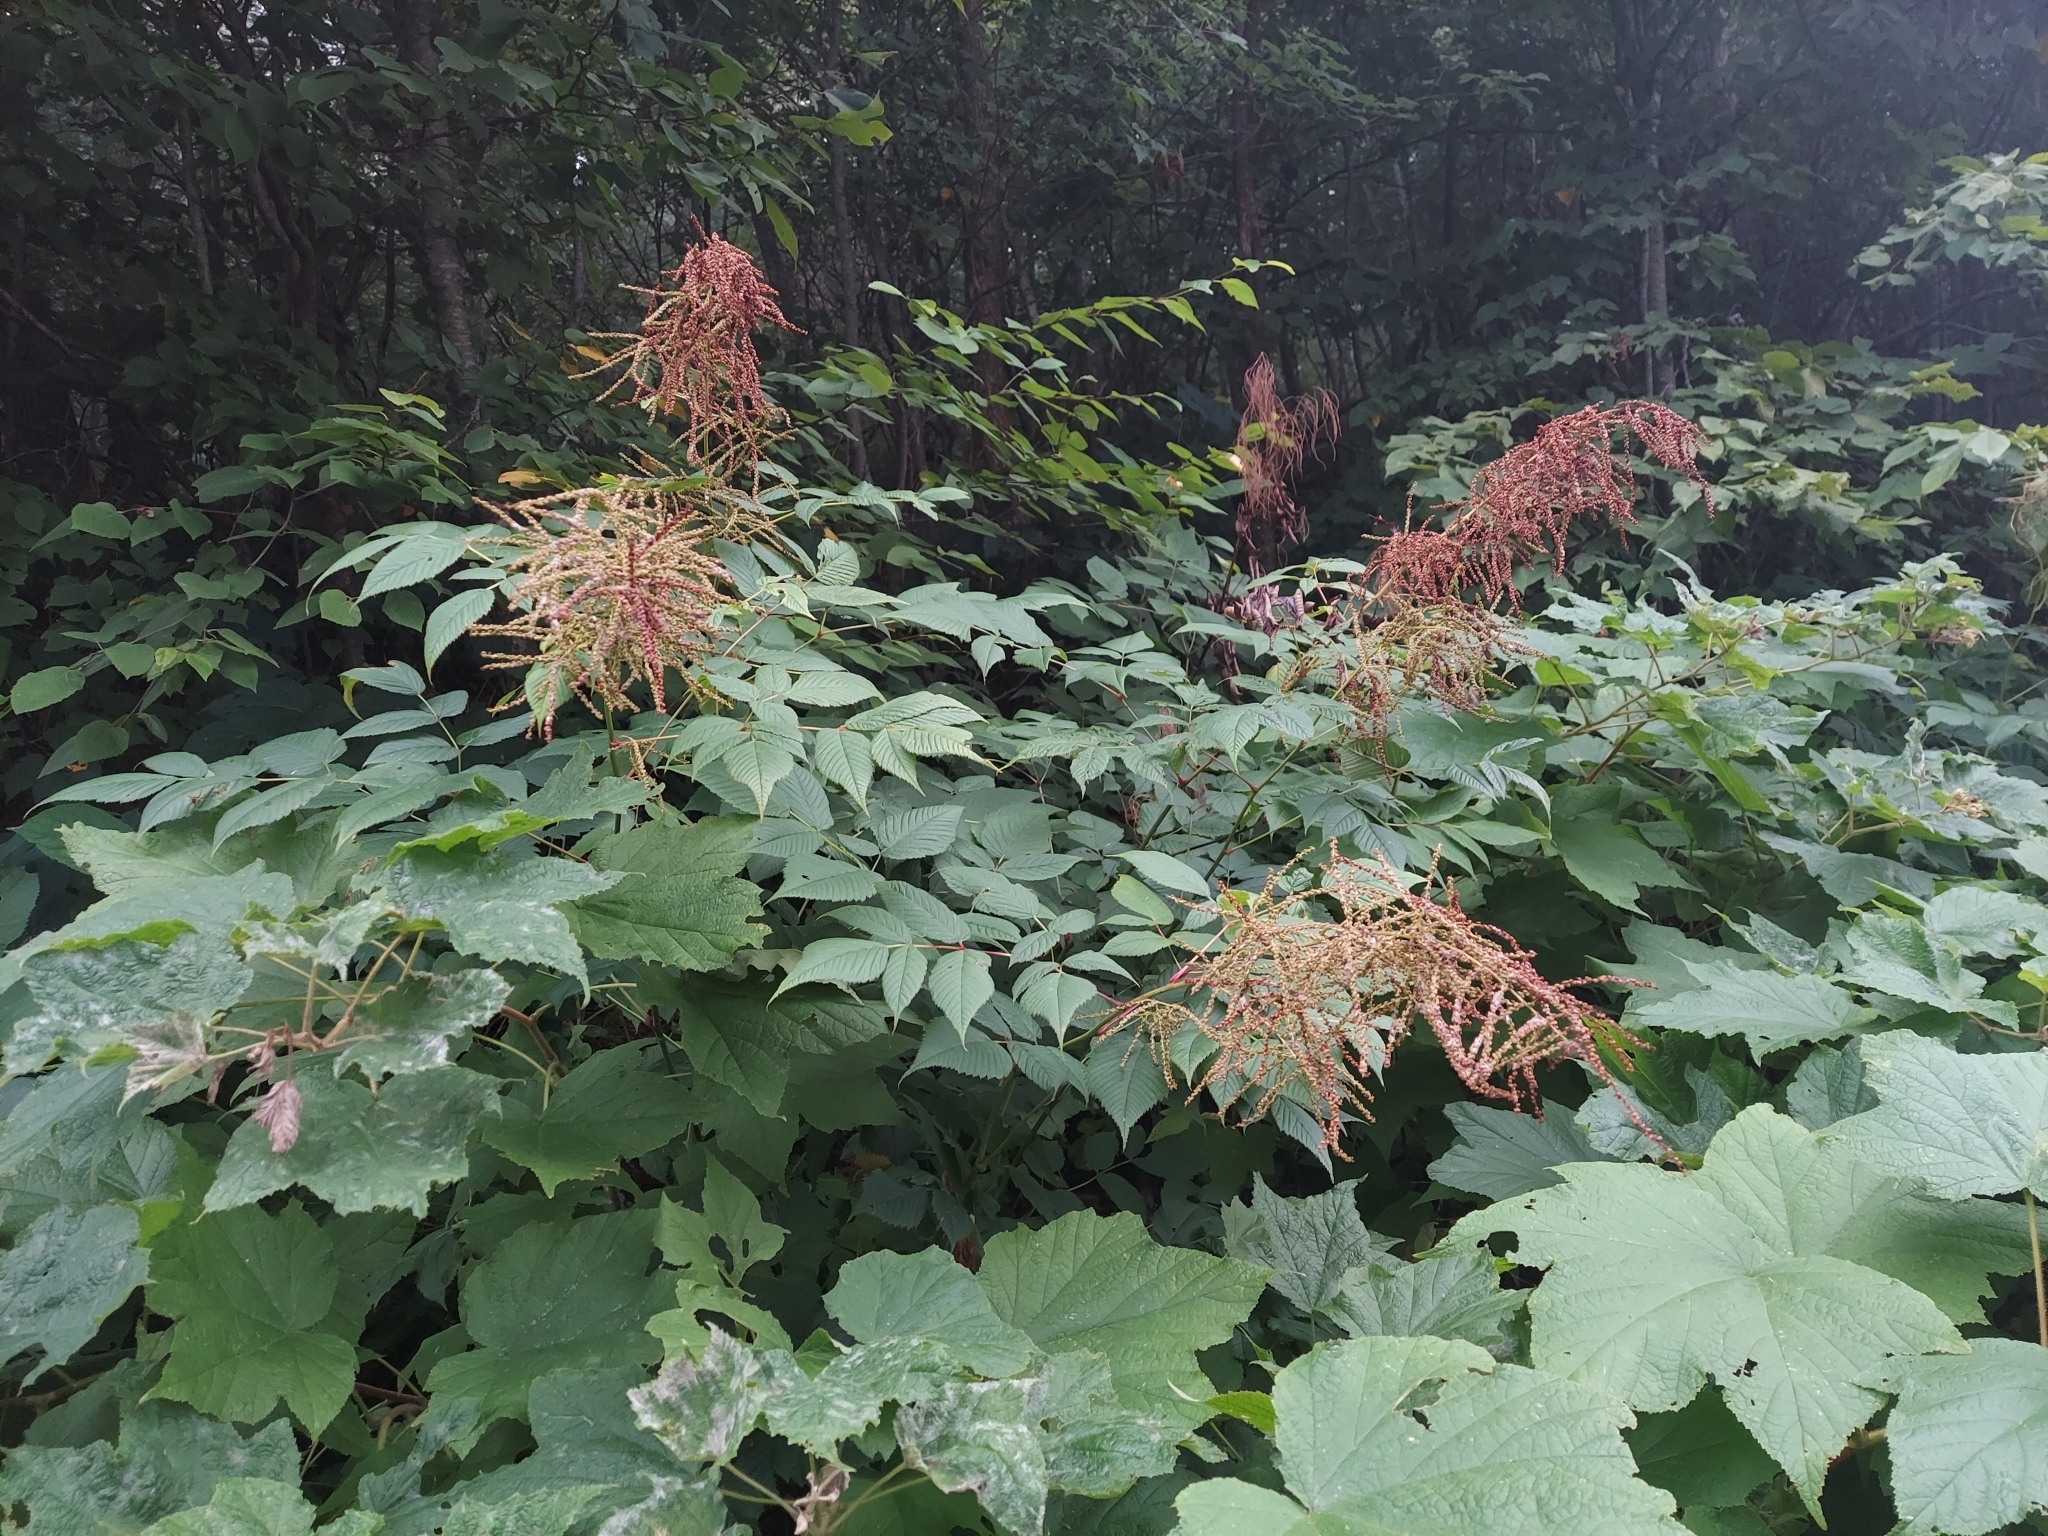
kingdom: Plantae
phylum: Tracheophyta
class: Magnoliopsida
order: Rosales
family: Rosaceae
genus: Aruncus
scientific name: Aruncus dioicus
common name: Buck's-beard
